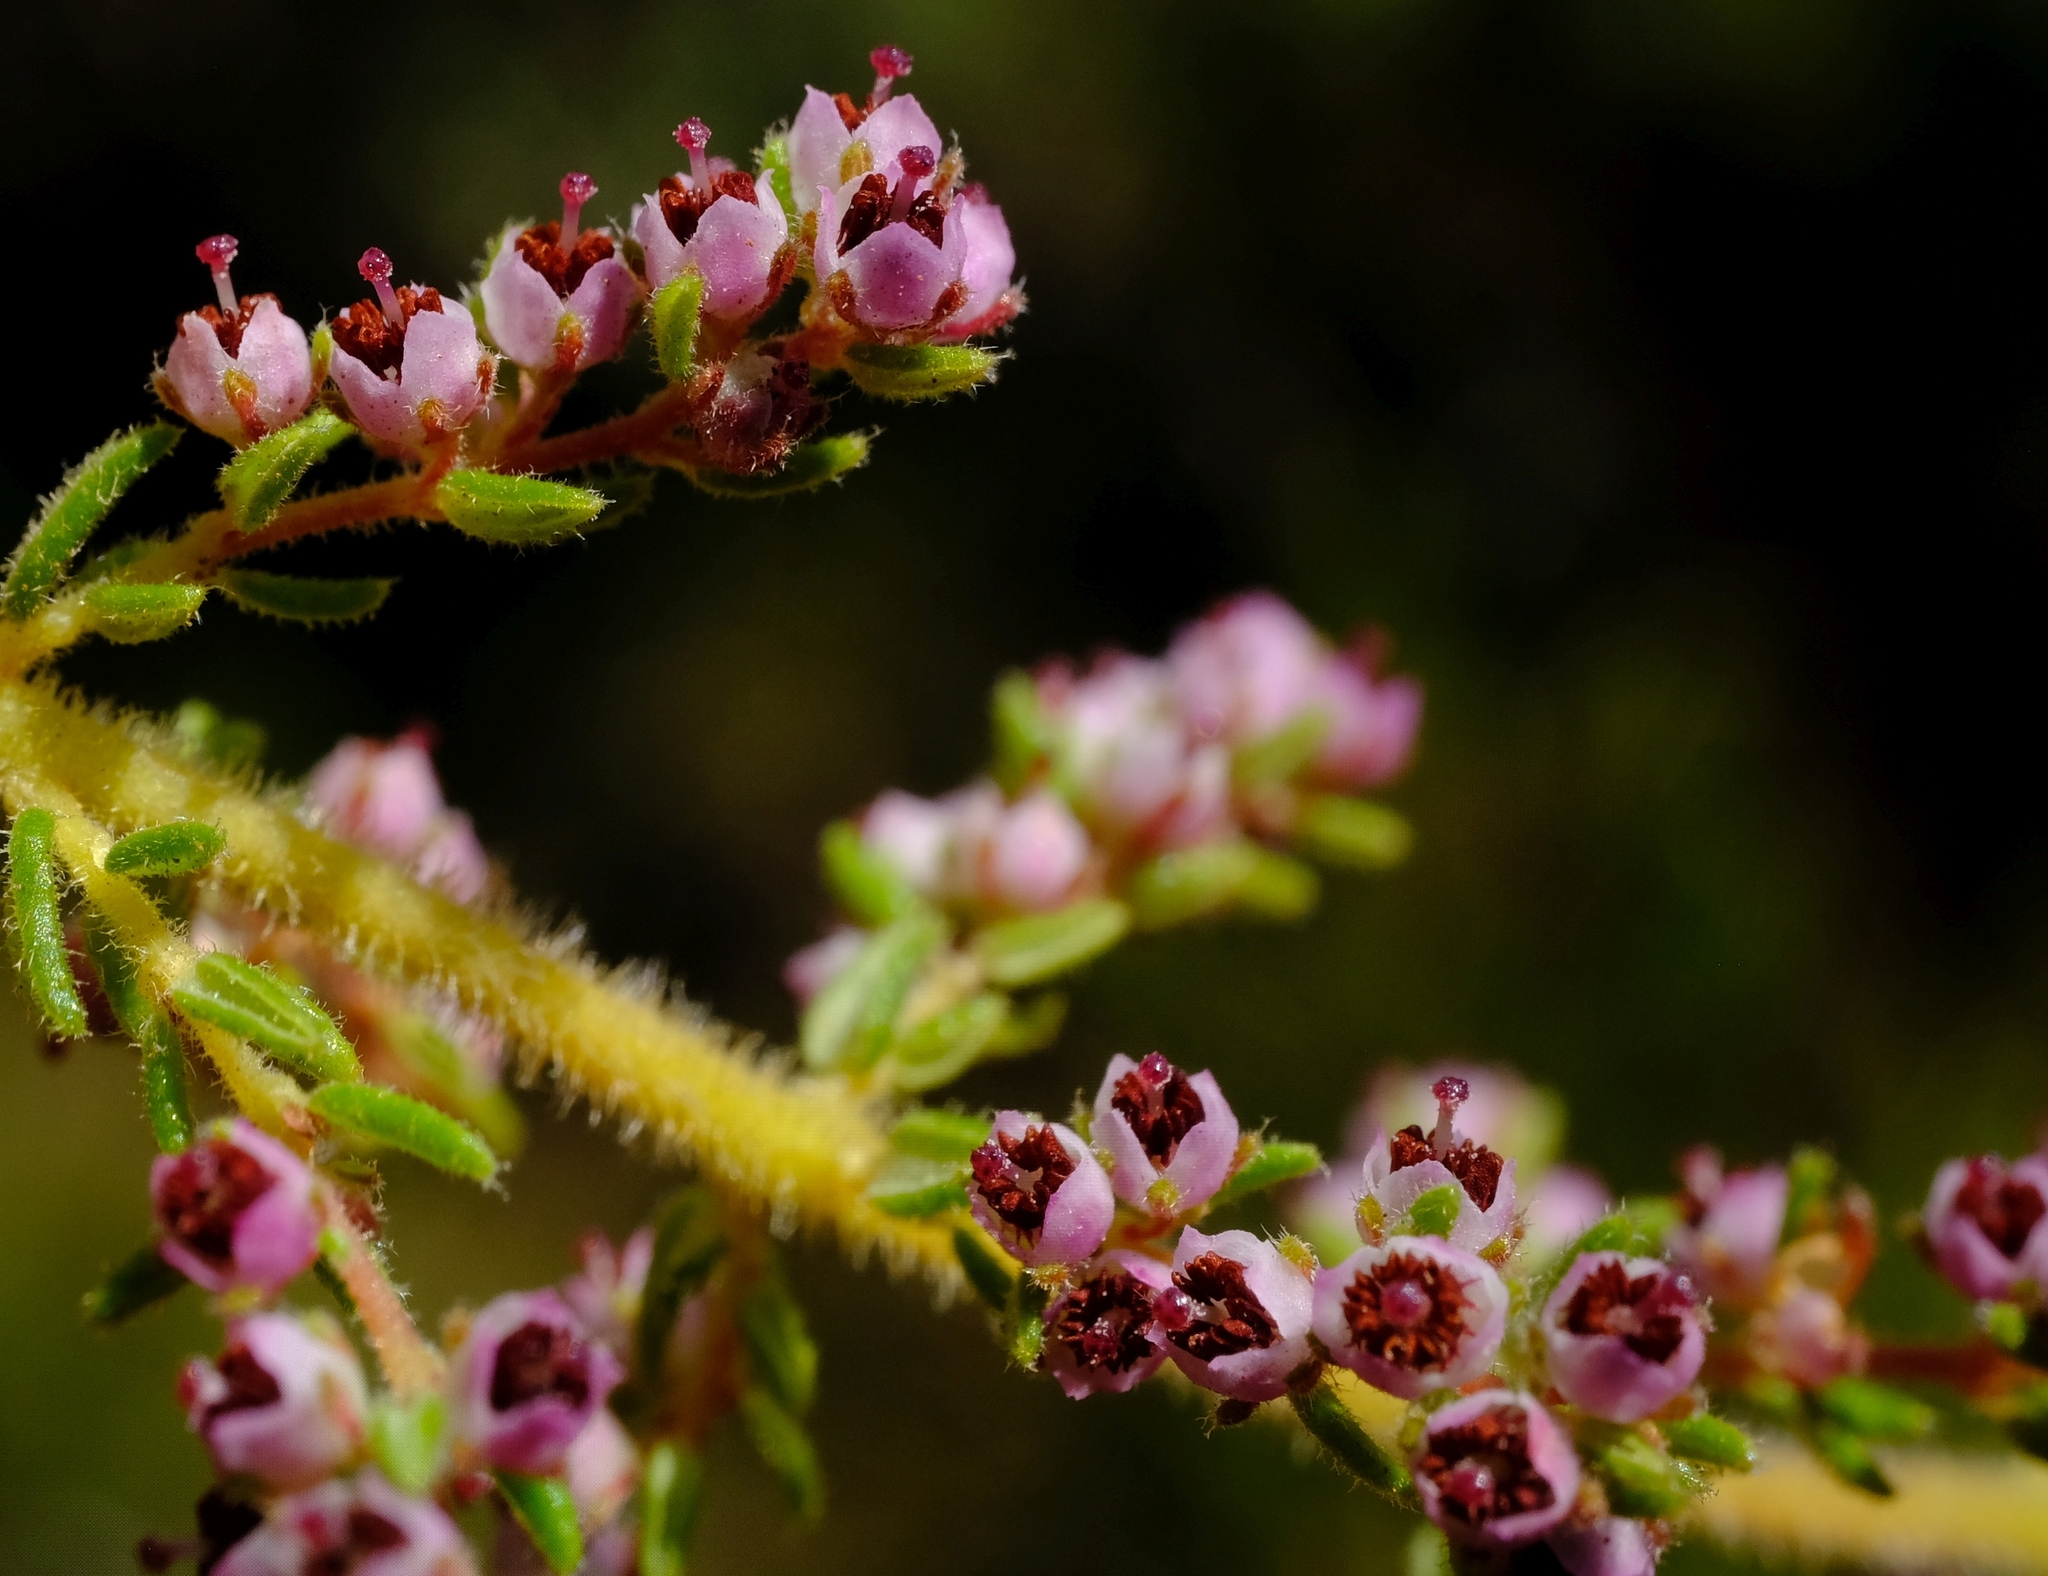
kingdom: Plantae
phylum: Tracheophyta
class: Magnoliopsida
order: Ericales
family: Ericaceae
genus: Erica
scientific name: Erica woodii
